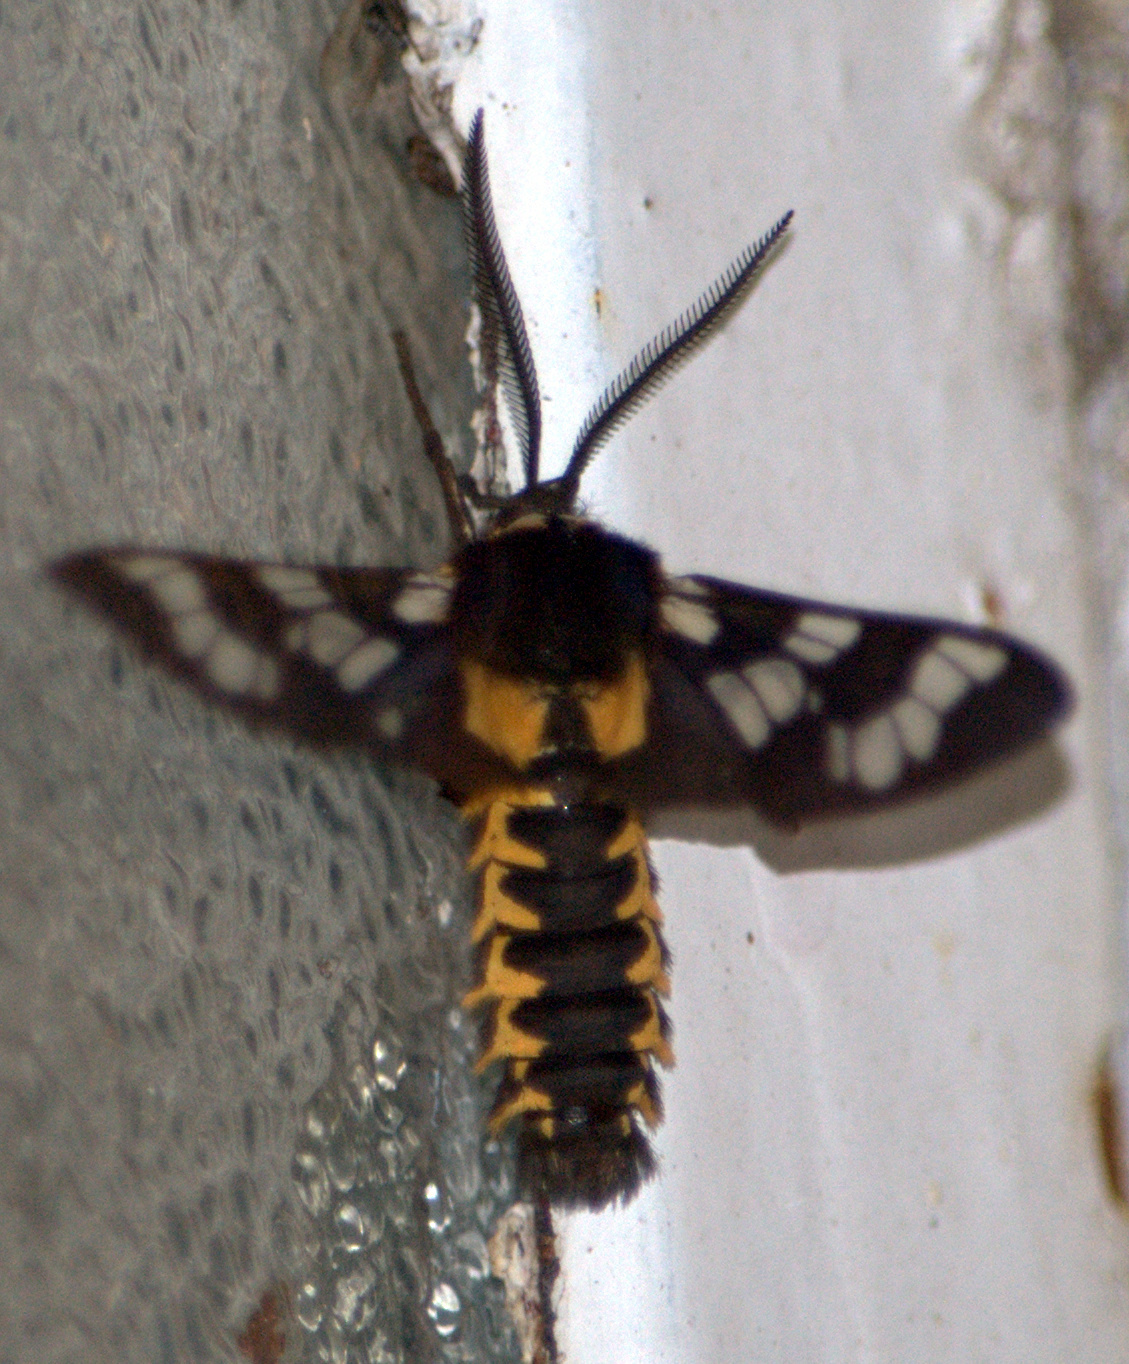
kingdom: Animalia
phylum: Arthropoda
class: Insecta
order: Lepidoptera
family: Erebidae
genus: Eurata
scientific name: Eurata
